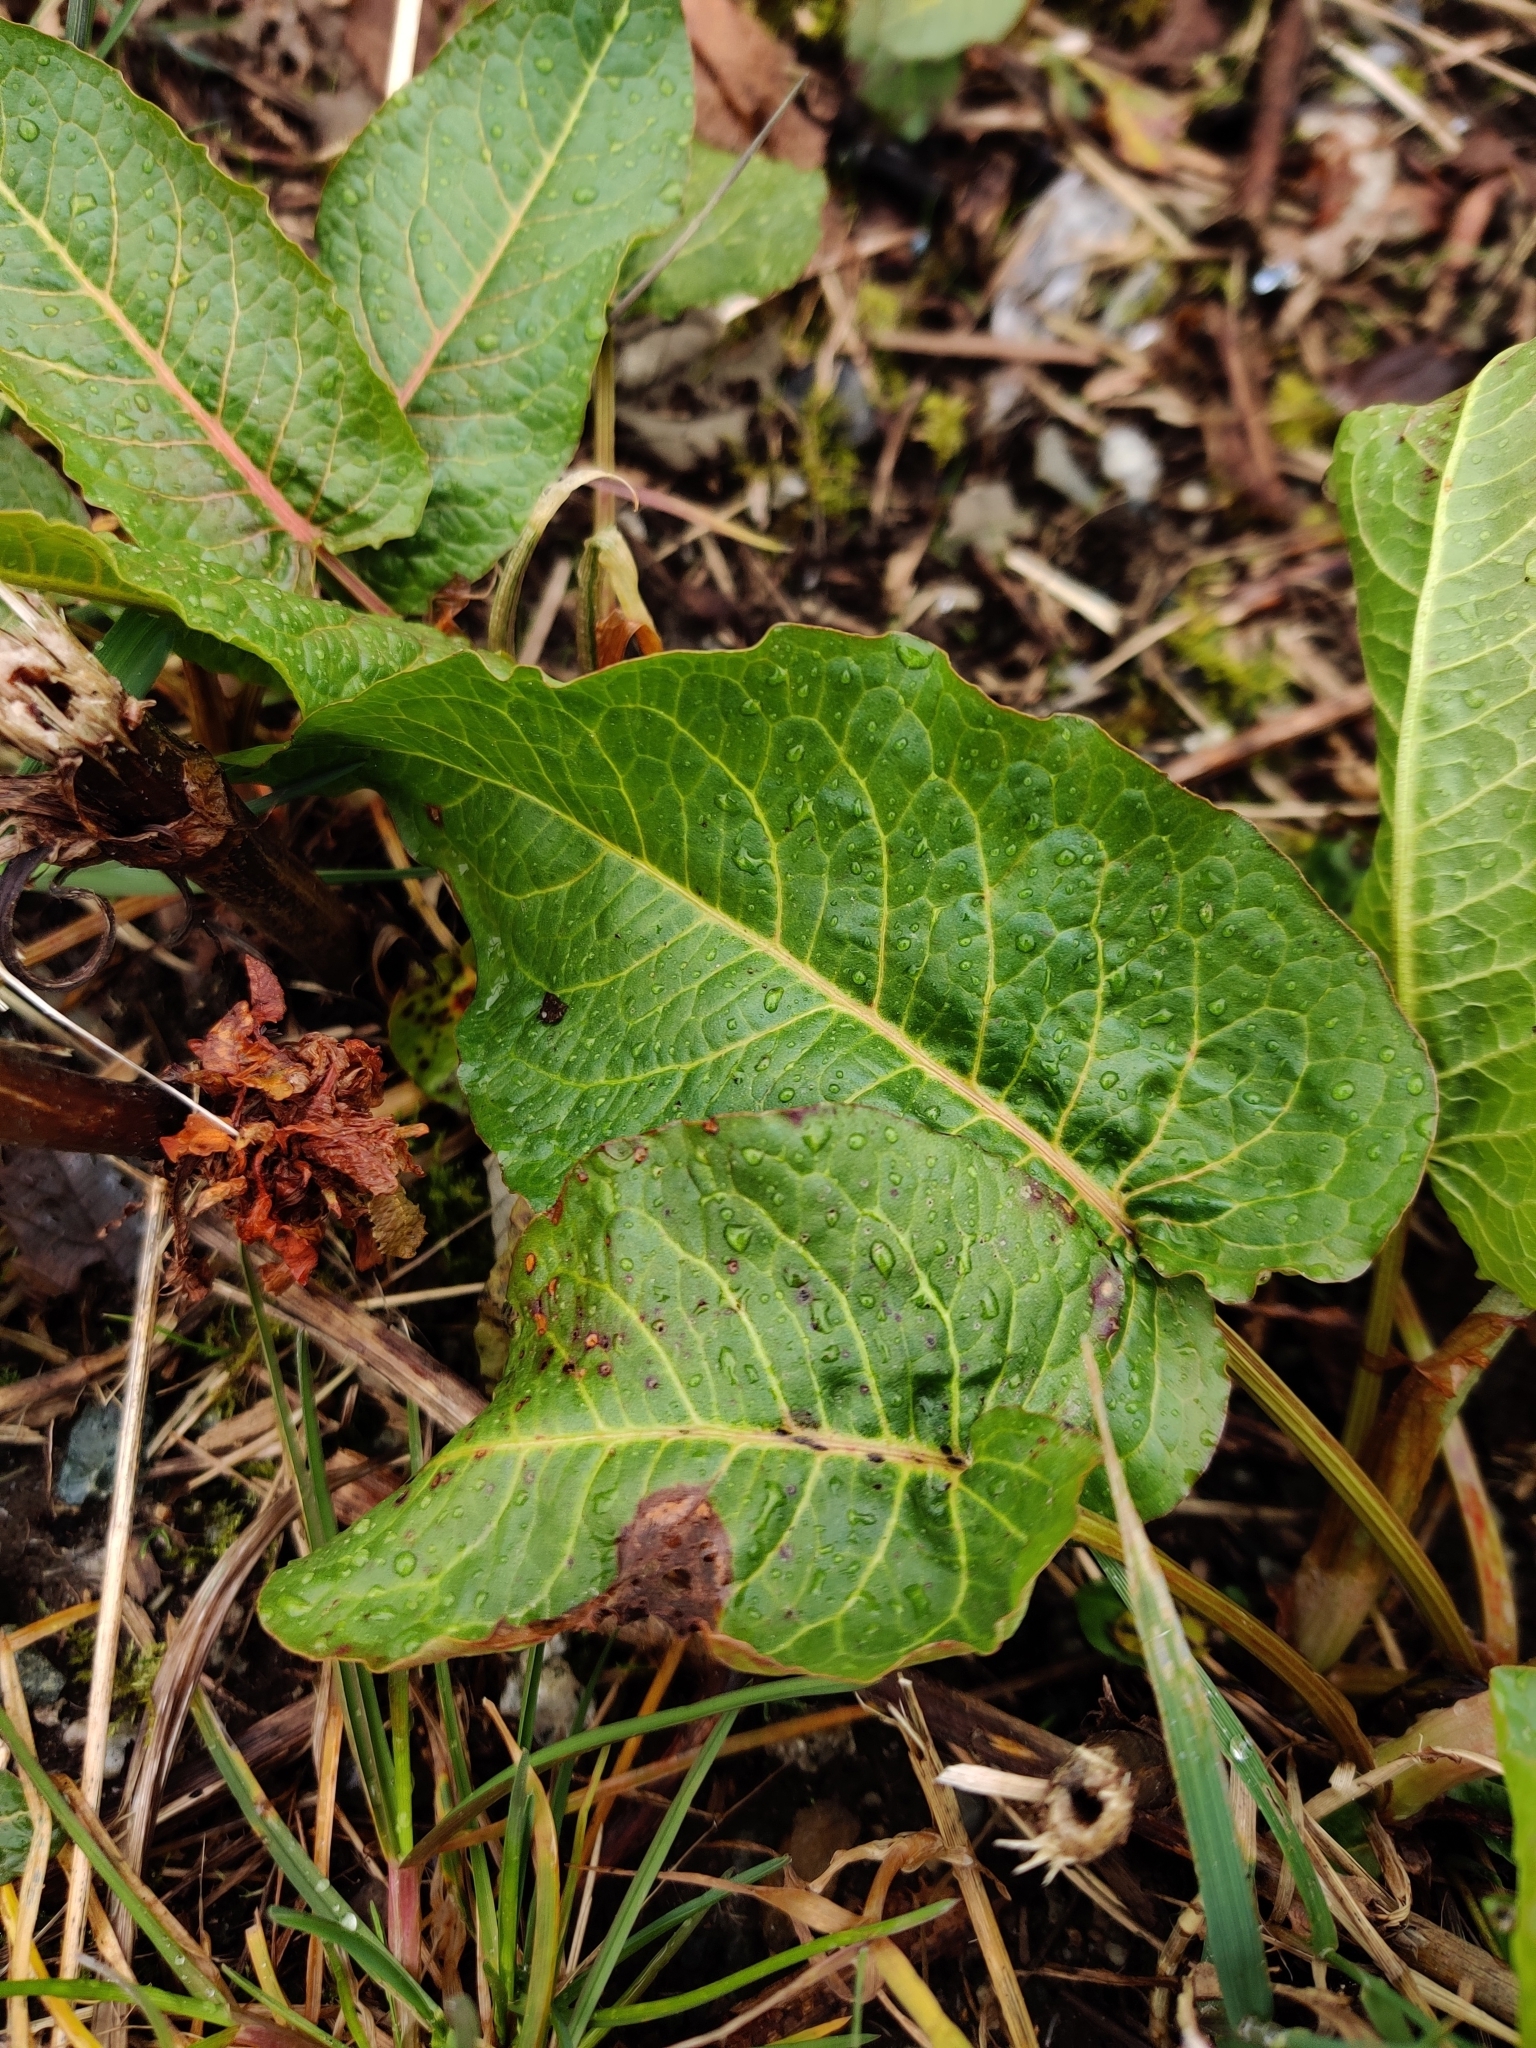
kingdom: Plantae
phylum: Tracheophyta
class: Magnoliopsida
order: Caryophyllales
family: Polygonaceae
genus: Rumex
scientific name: Rumex obtusifolius
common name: Bitter dock
